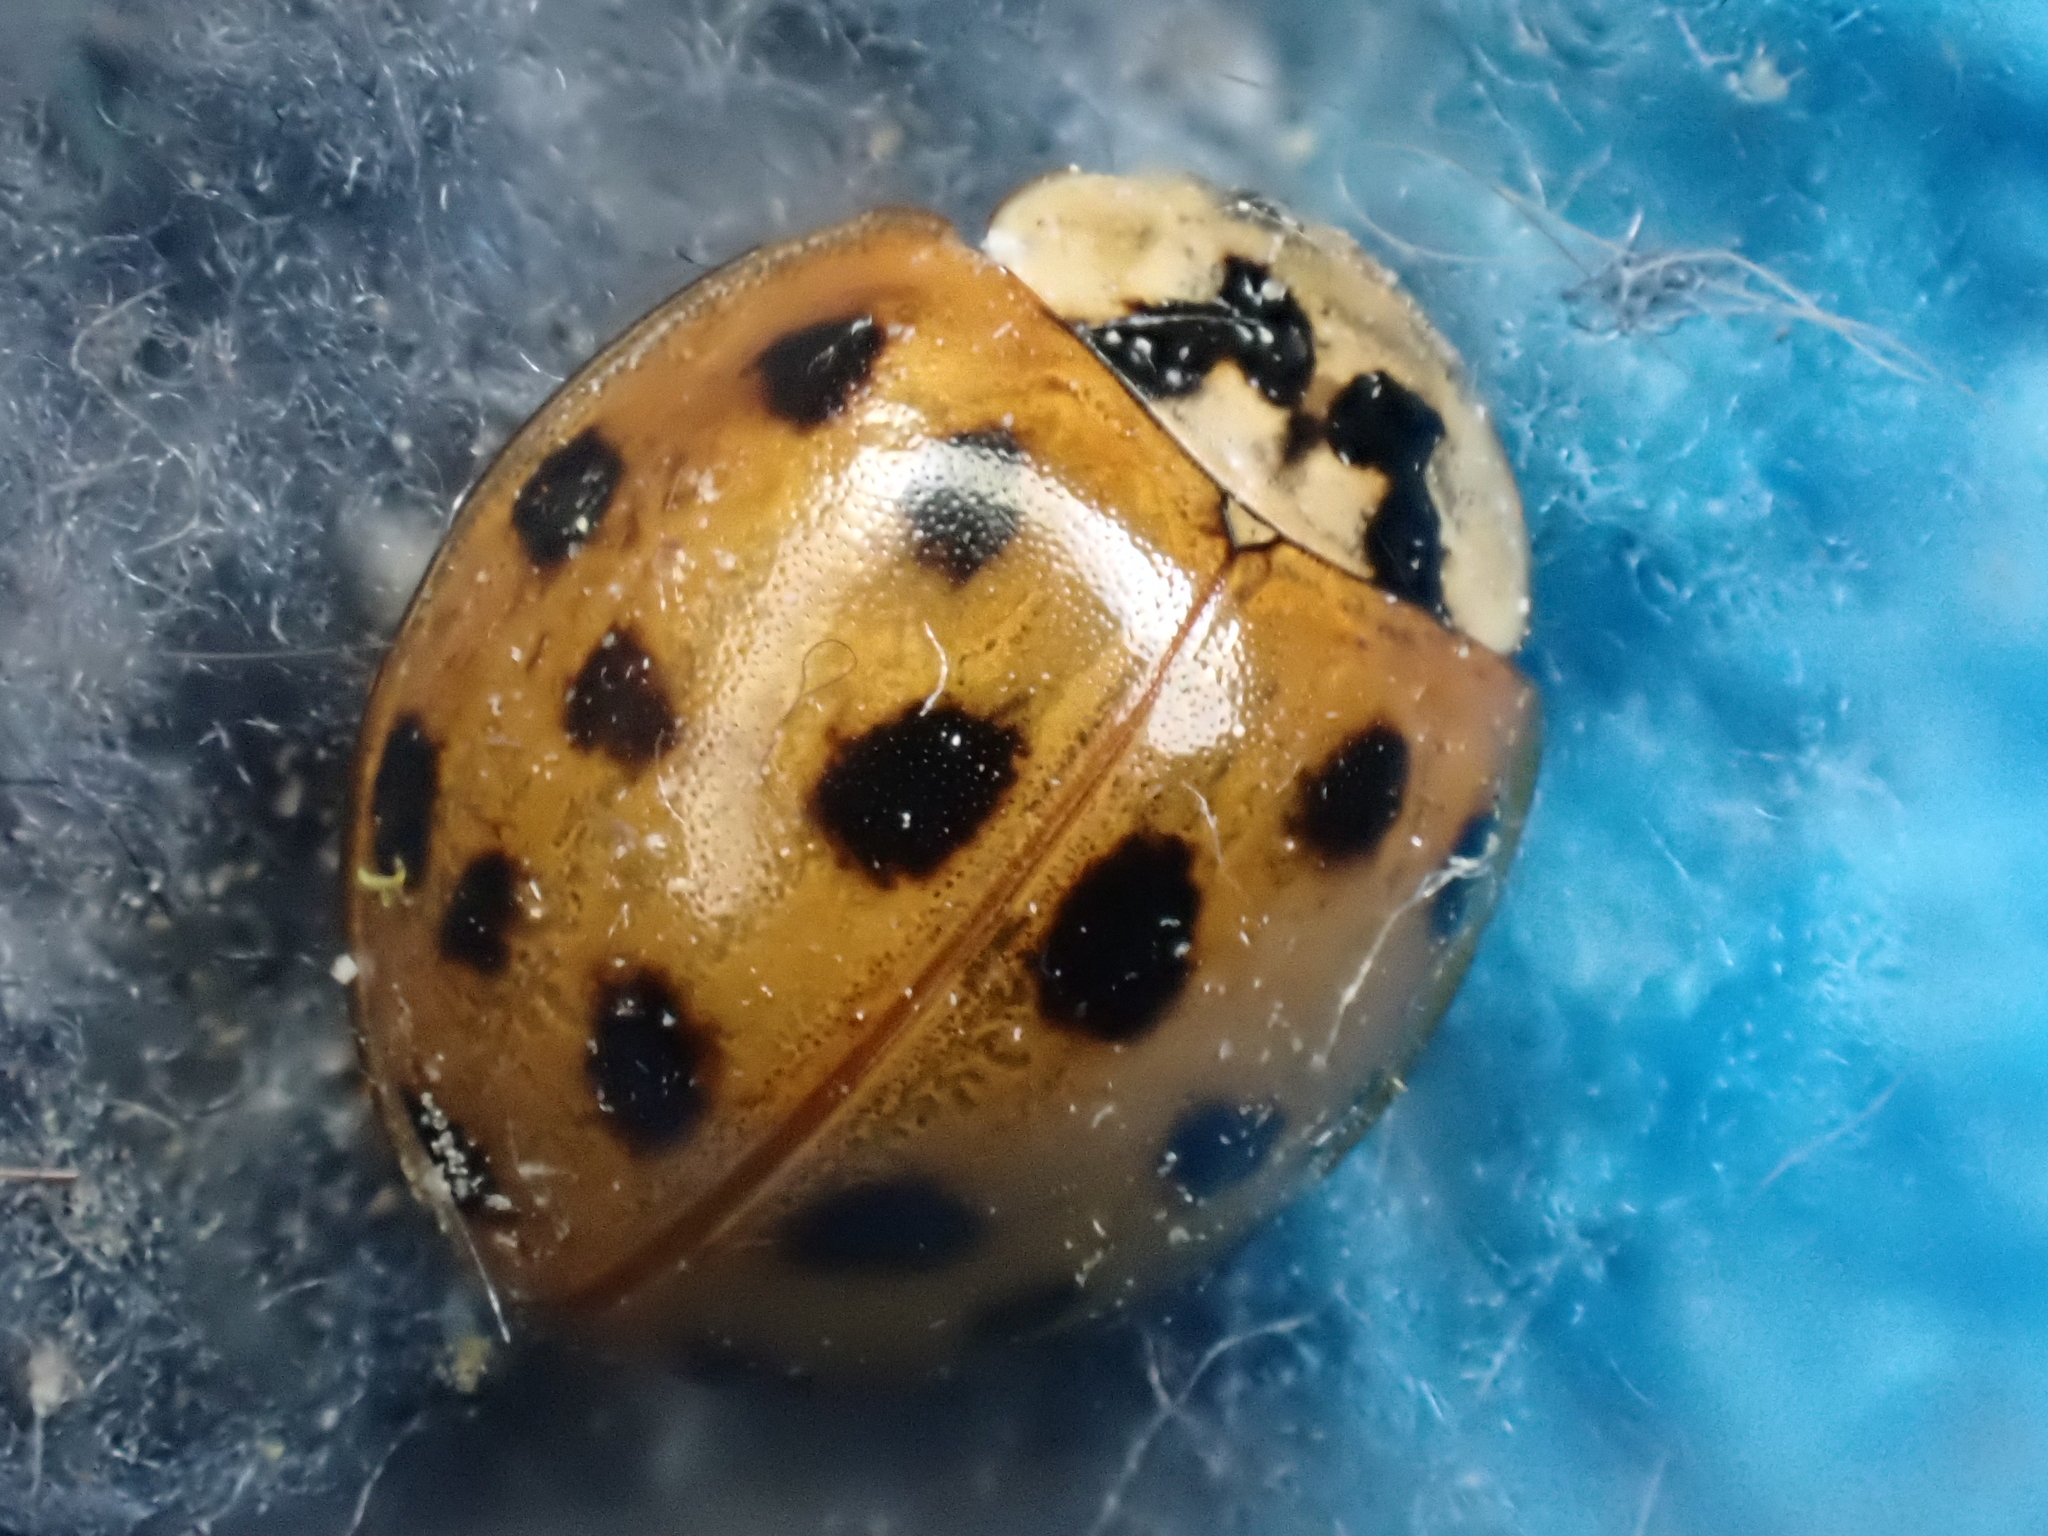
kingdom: Animalia
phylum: Arthropoda
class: Insecta
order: Coleoptera
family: Coccinellidae
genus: Harmonia
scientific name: Harmonia axyridis
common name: Harlequin ladybird
